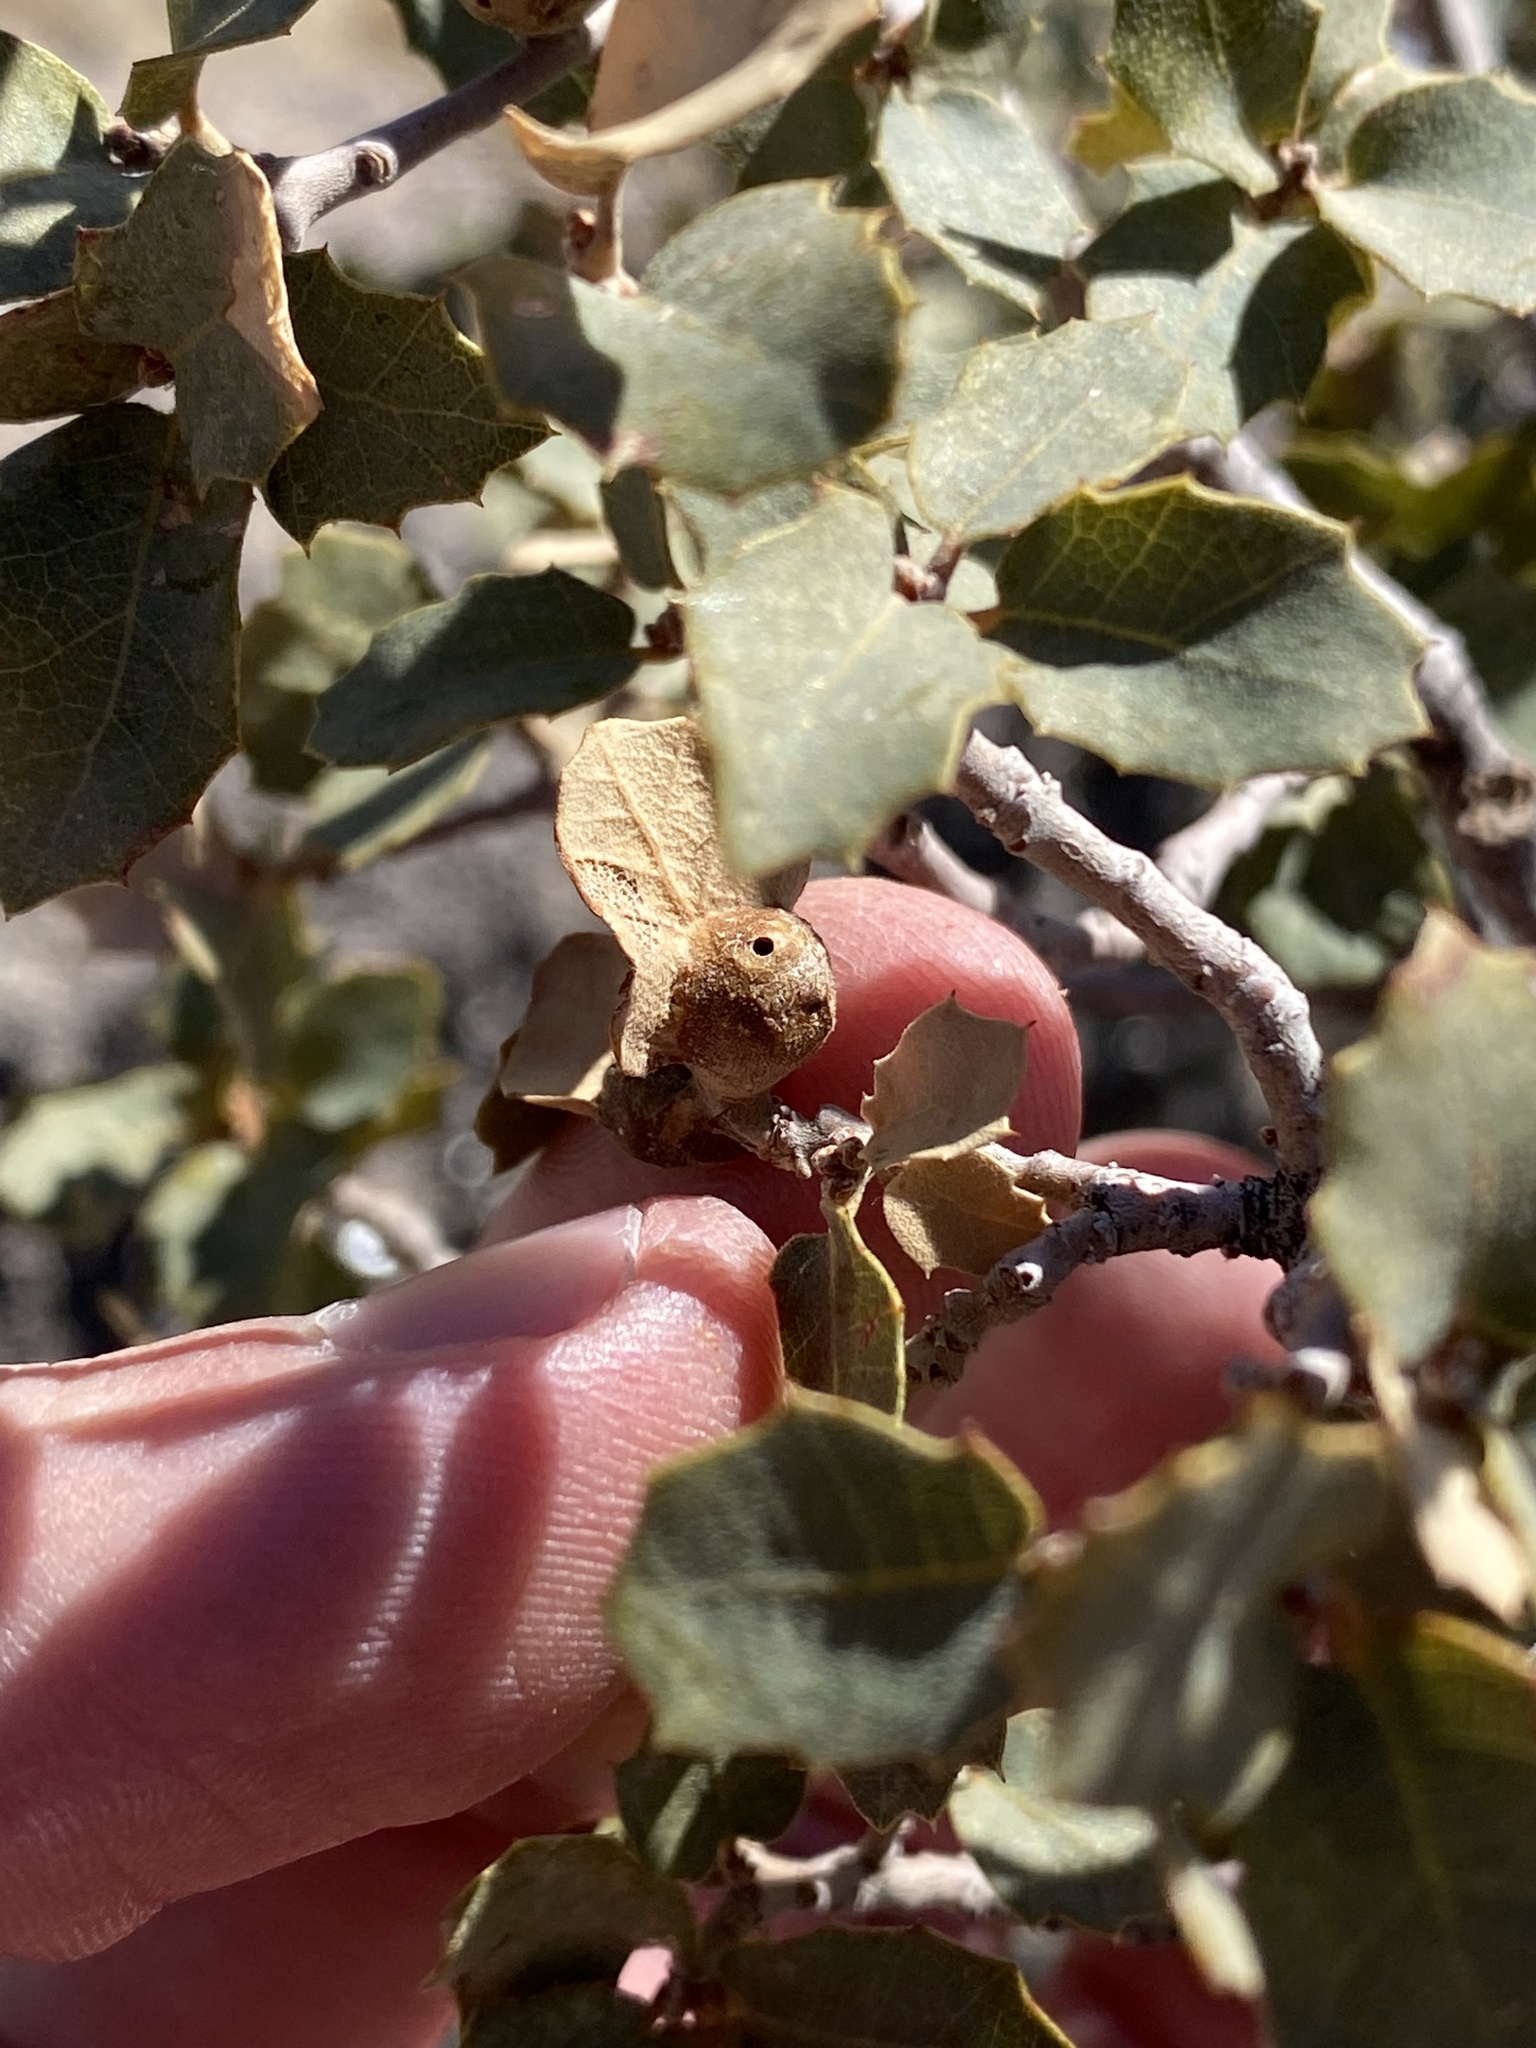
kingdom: Animalia
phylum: Arthropoda
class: Insecta
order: Hymenoptera
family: Cynipidae
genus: Andricus
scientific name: Andricus
